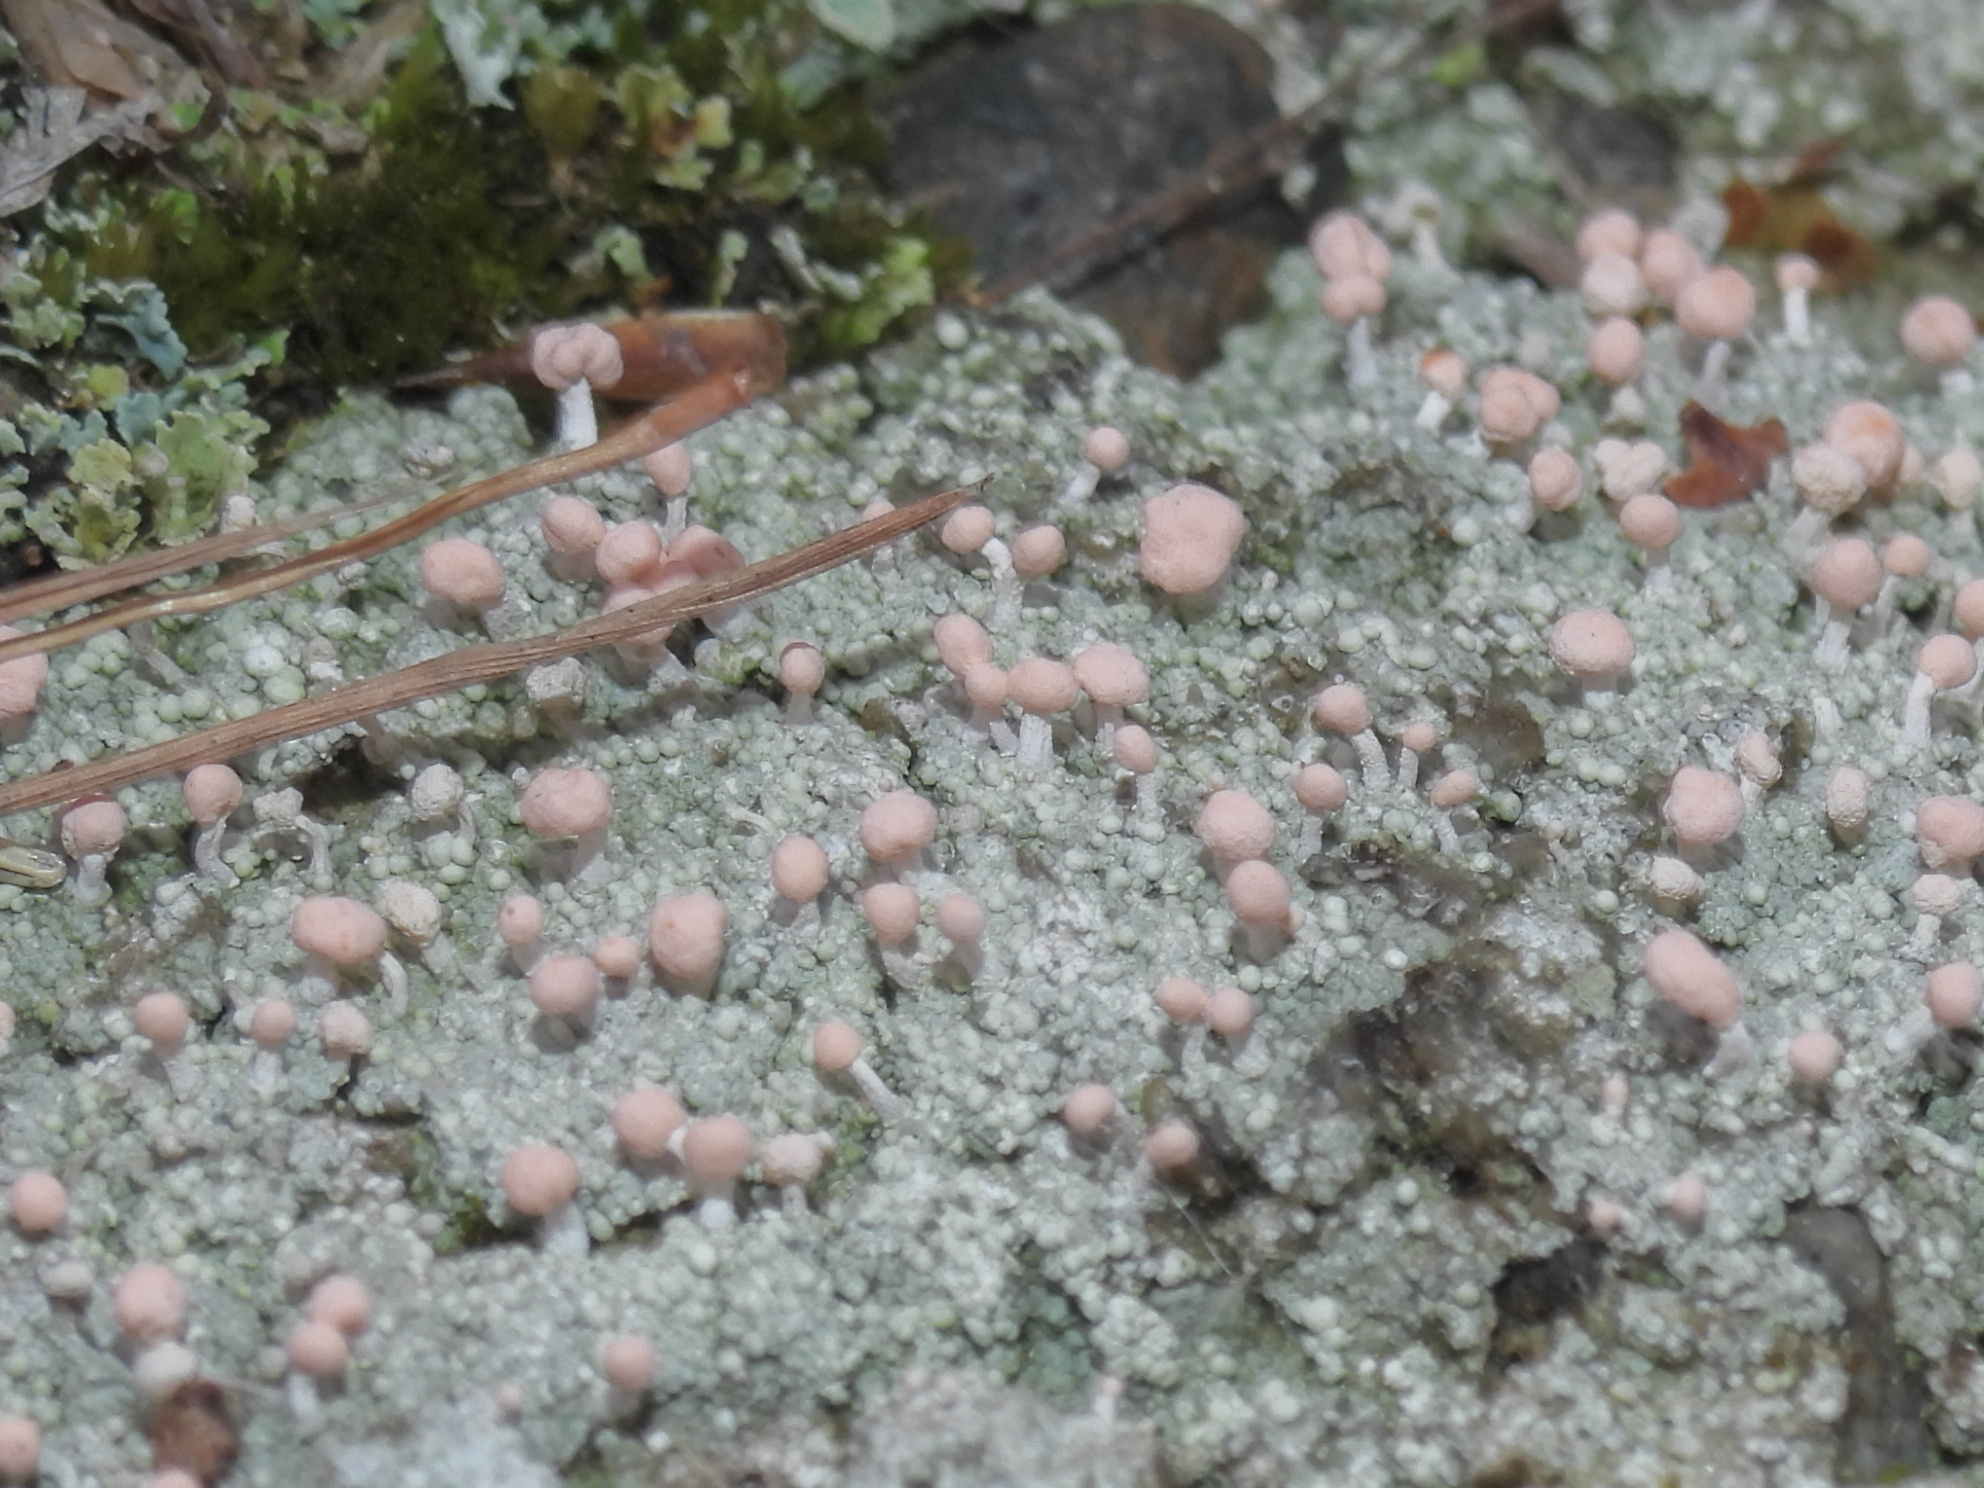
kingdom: Fungi
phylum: Ascomycota
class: Lecanoromycetes
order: Pertusariales
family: Icmadophilaceae
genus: Dibaeis
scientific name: Dibaeis baeomyces
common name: Pink earth lichen
